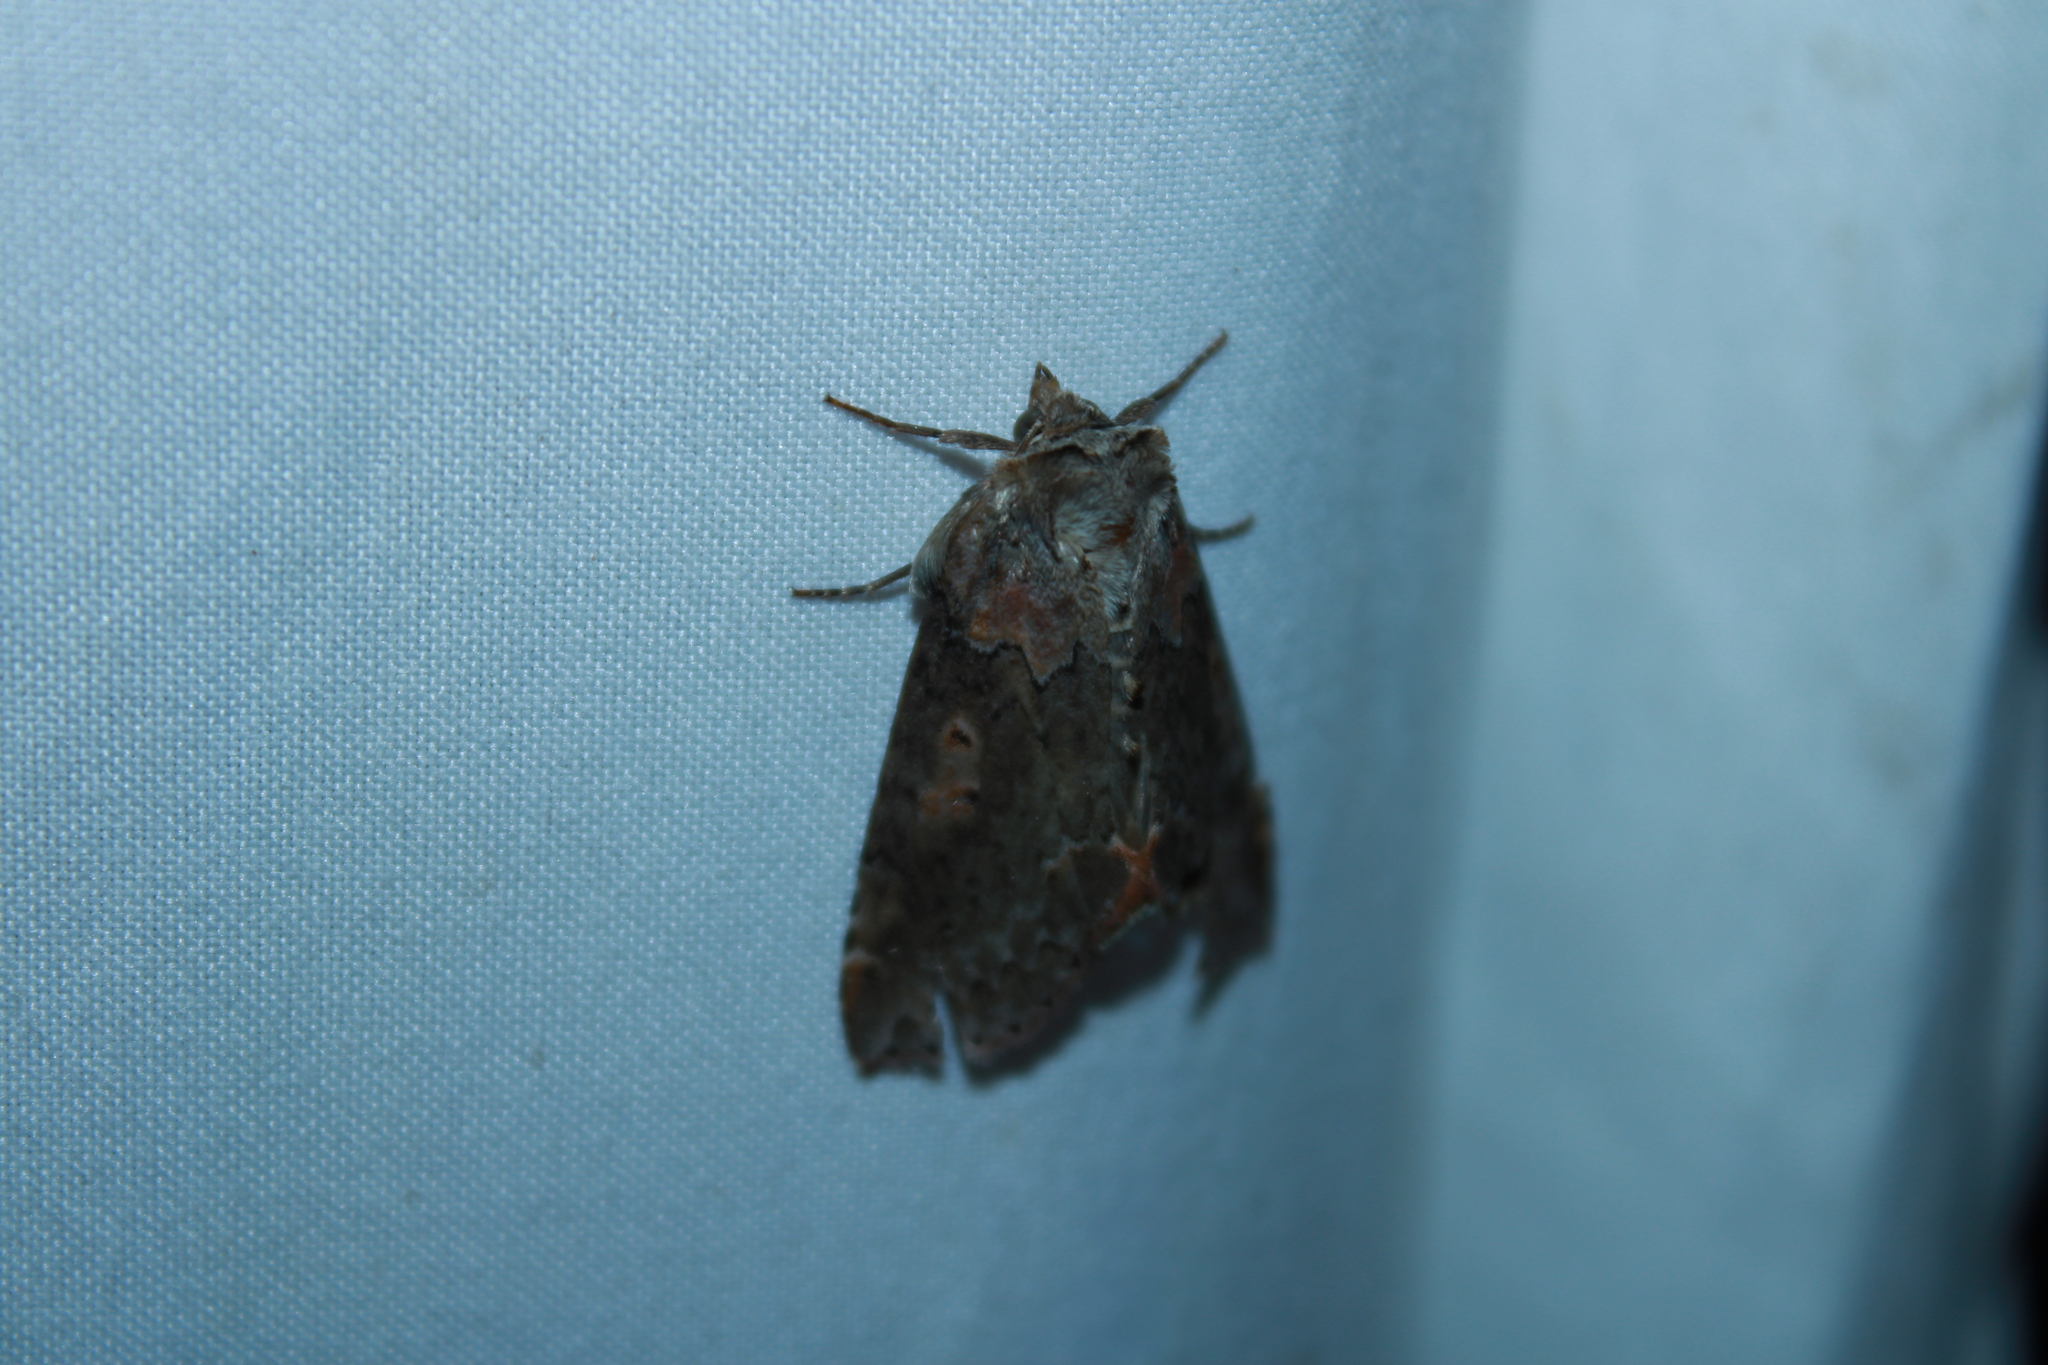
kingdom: Animalia
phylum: Arthropoda
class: Insecta
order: Lepidoptera
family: Drepanidae
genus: Pseudothyatira
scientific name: Pseudothyatira cymatophoroides
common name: Tufted thyatirid moth
